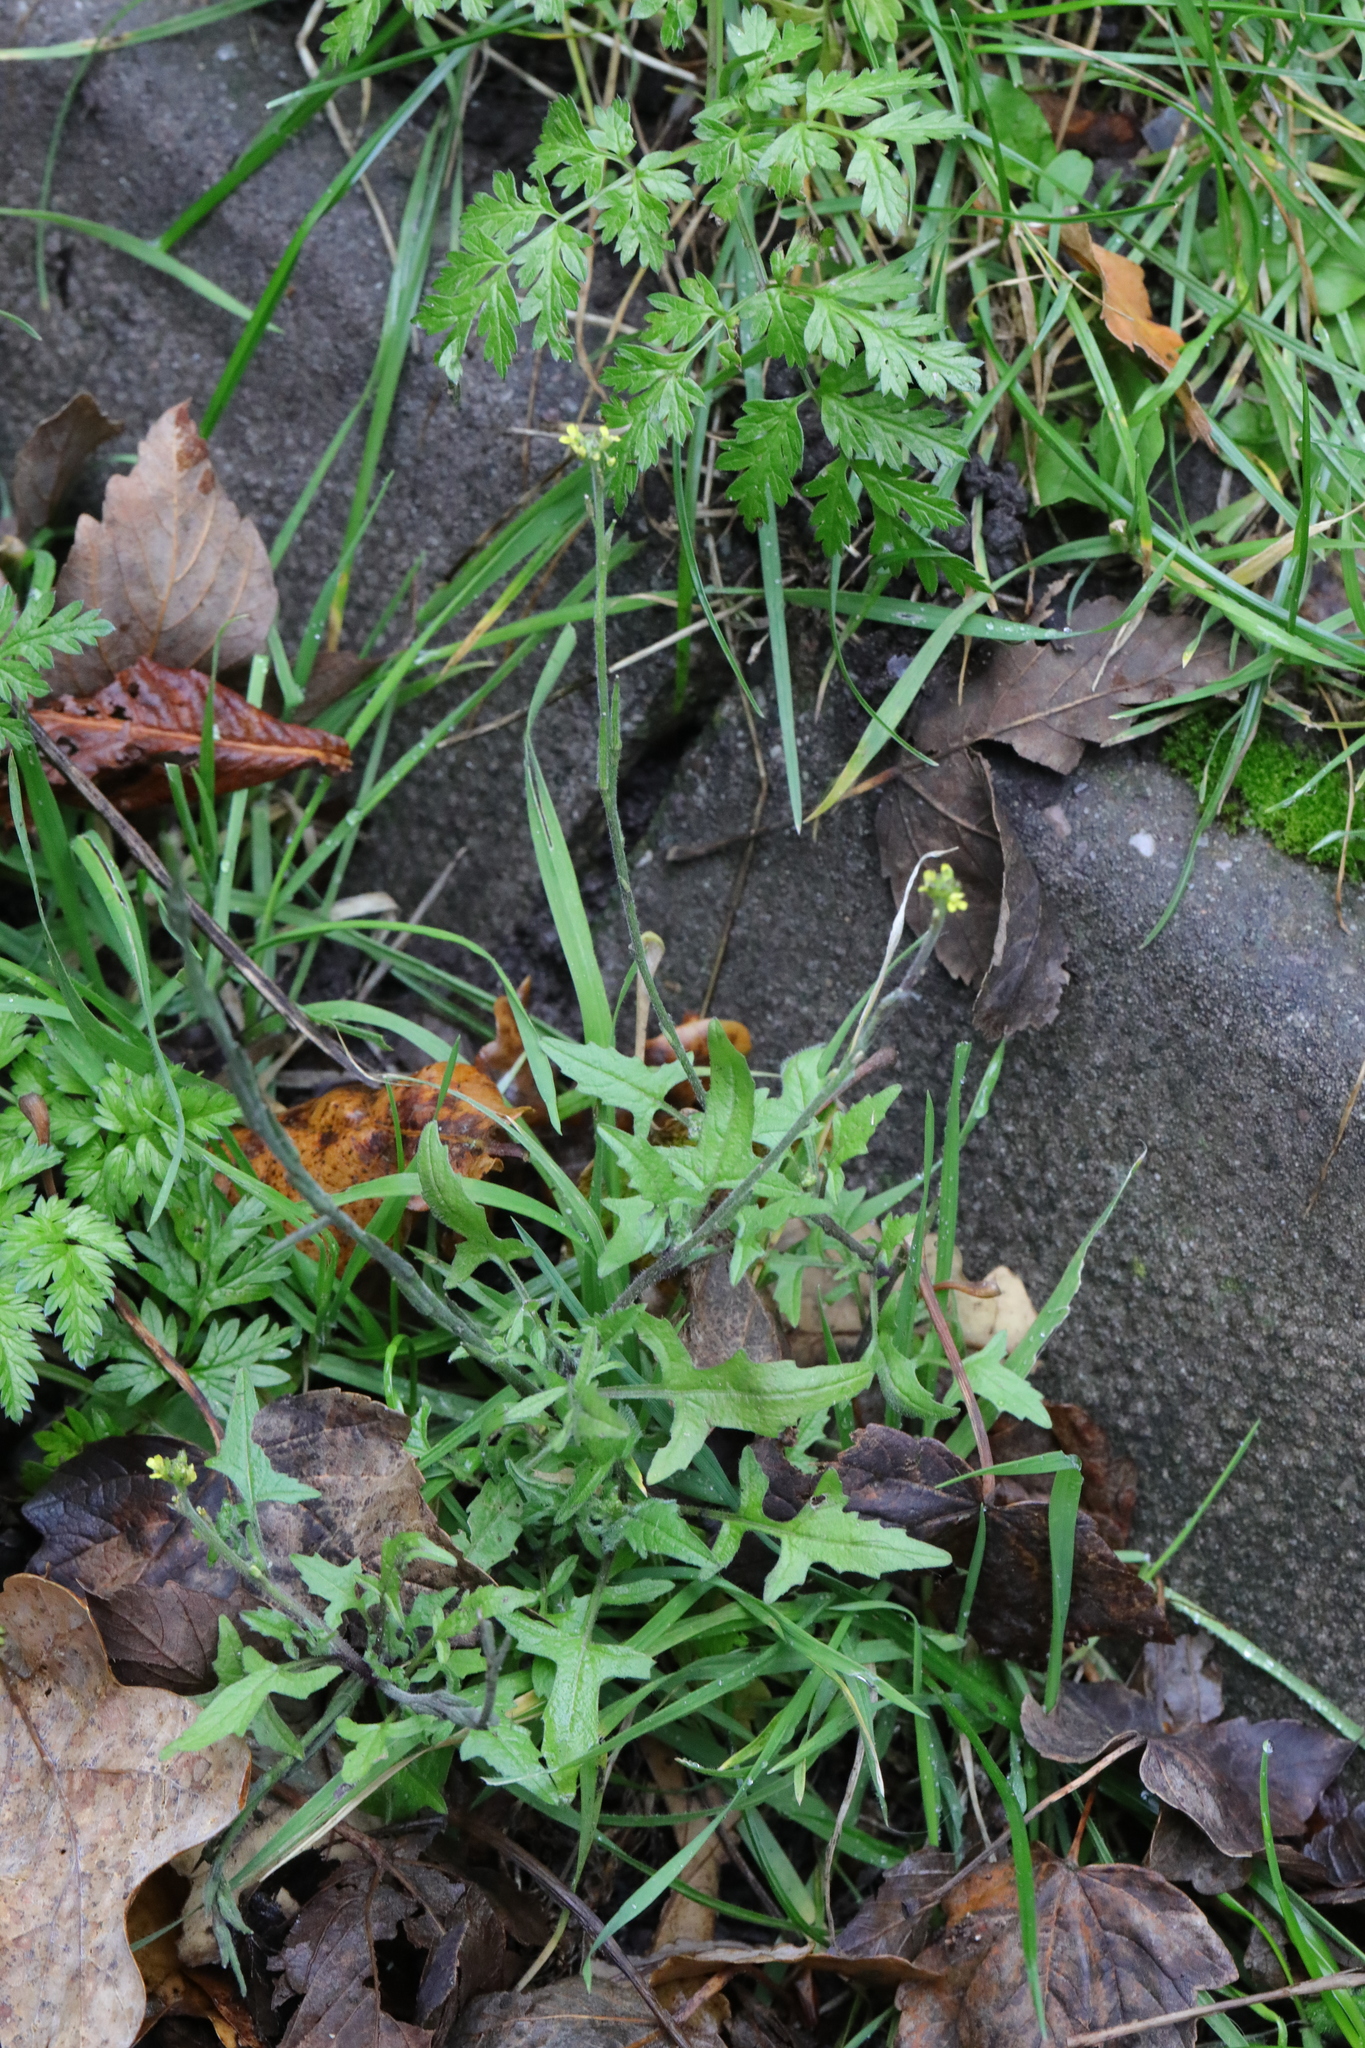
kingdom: Plantae
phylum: Tracheophyta
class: Magnoliopsida
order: Brassicales
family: Brassicaceae
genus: Sisymbrium
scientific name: Sisymbrium officinale
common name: Hedge mustard
